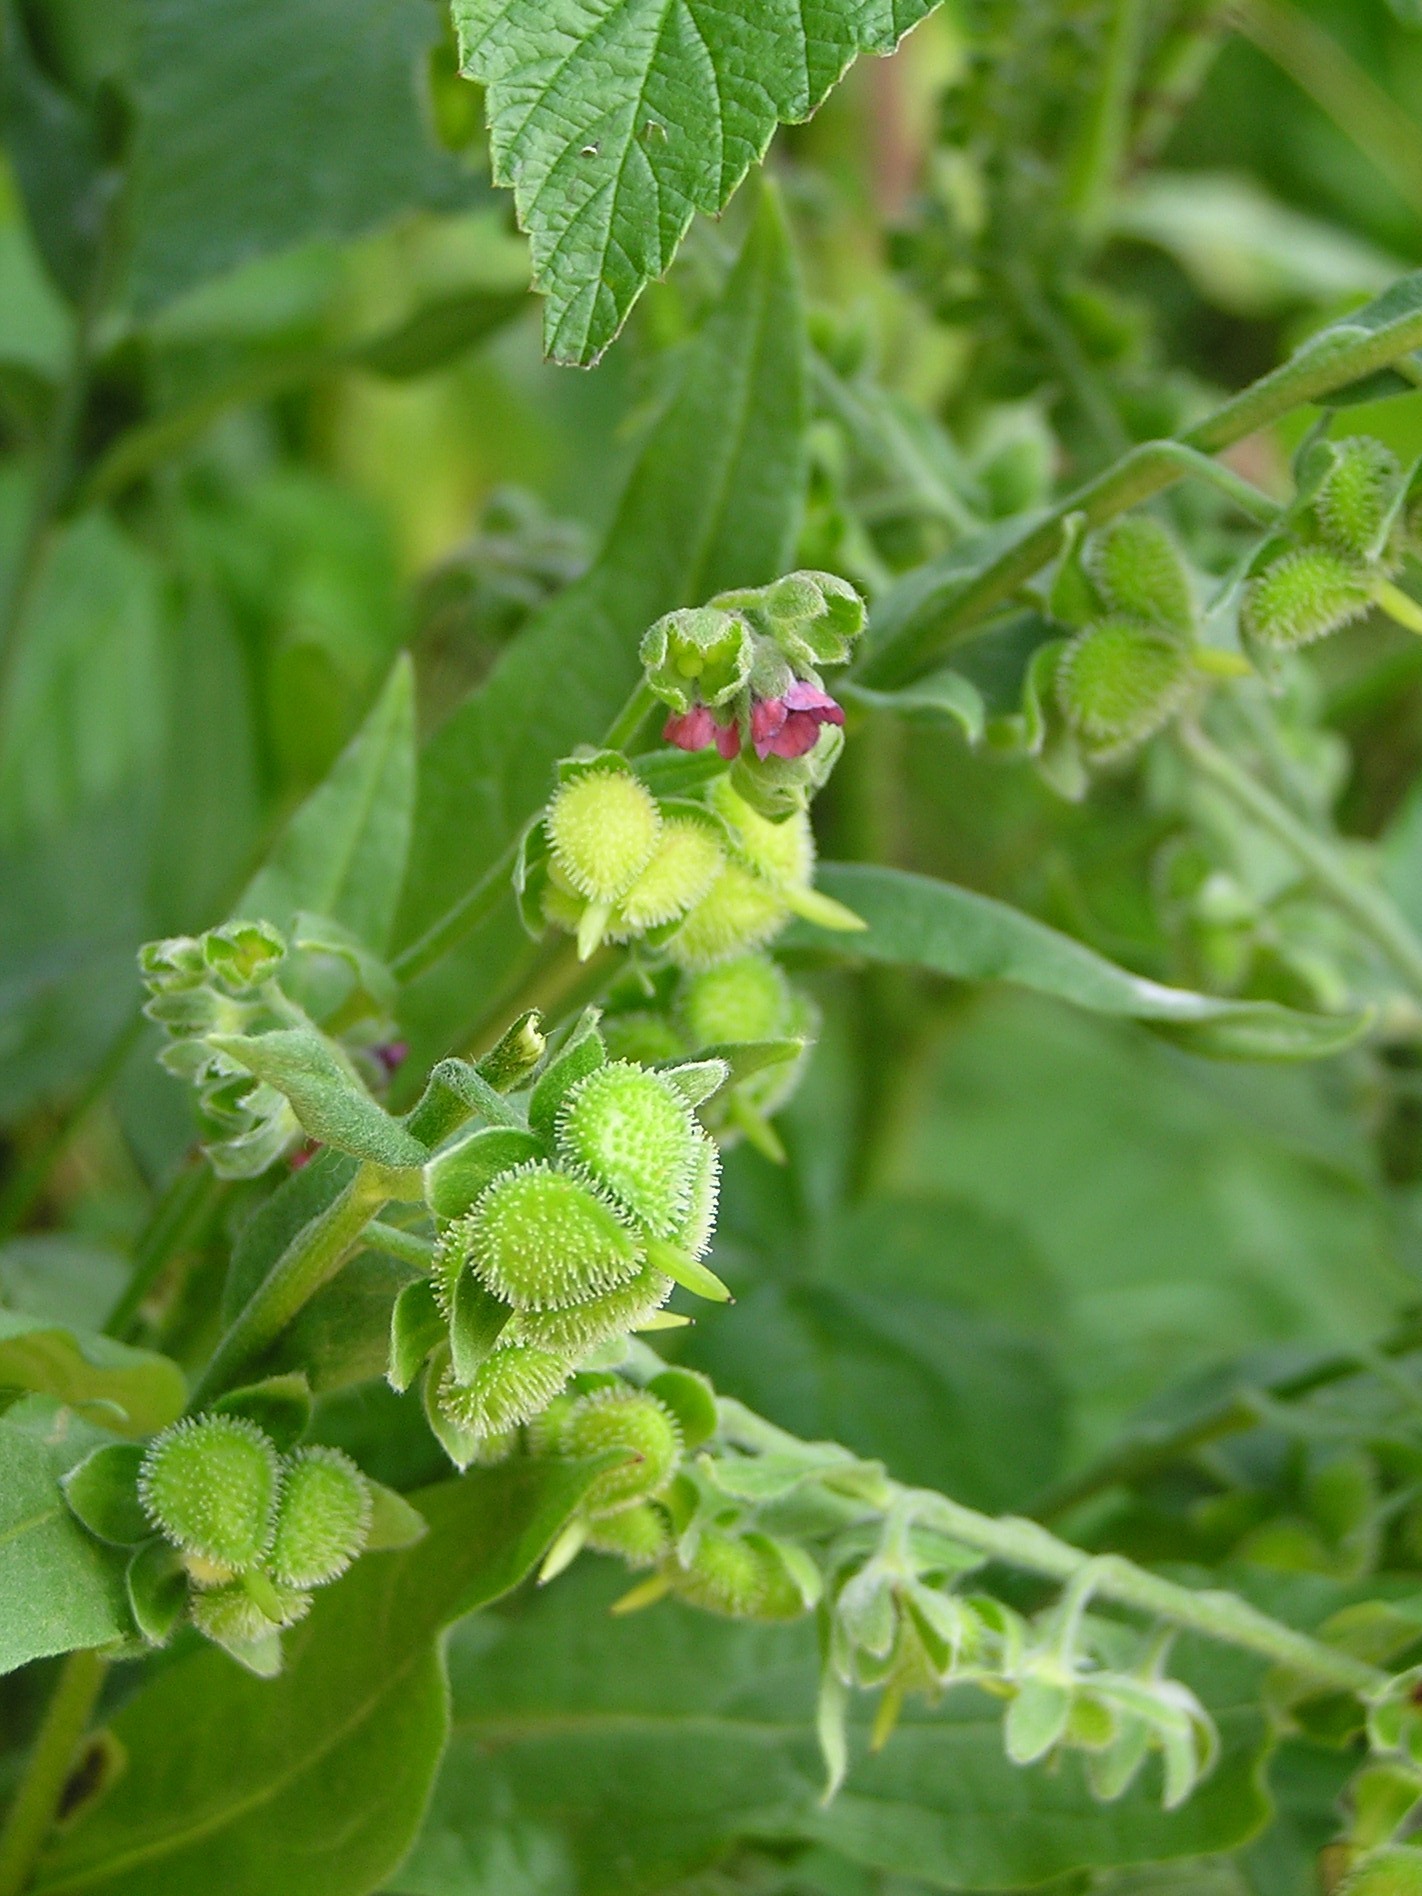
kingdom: Plantae
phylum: Tracheophyta
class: Magnoliopsida
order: Boraginales
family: Boraginaceae
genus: Cynoglossum
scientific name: Cynoglossum officinale
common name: Hound's-tongue
